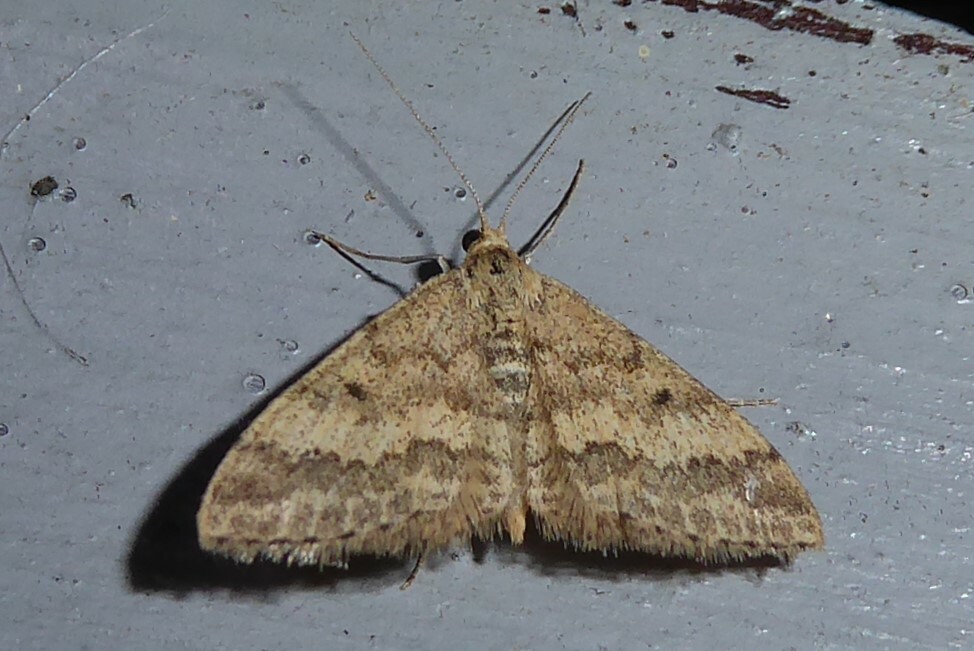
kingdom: Animalia
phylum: Arthropoda
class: Insecta
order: Lepidoptera
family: Geometridae
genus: Scopula
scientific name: Scopula rubraria
